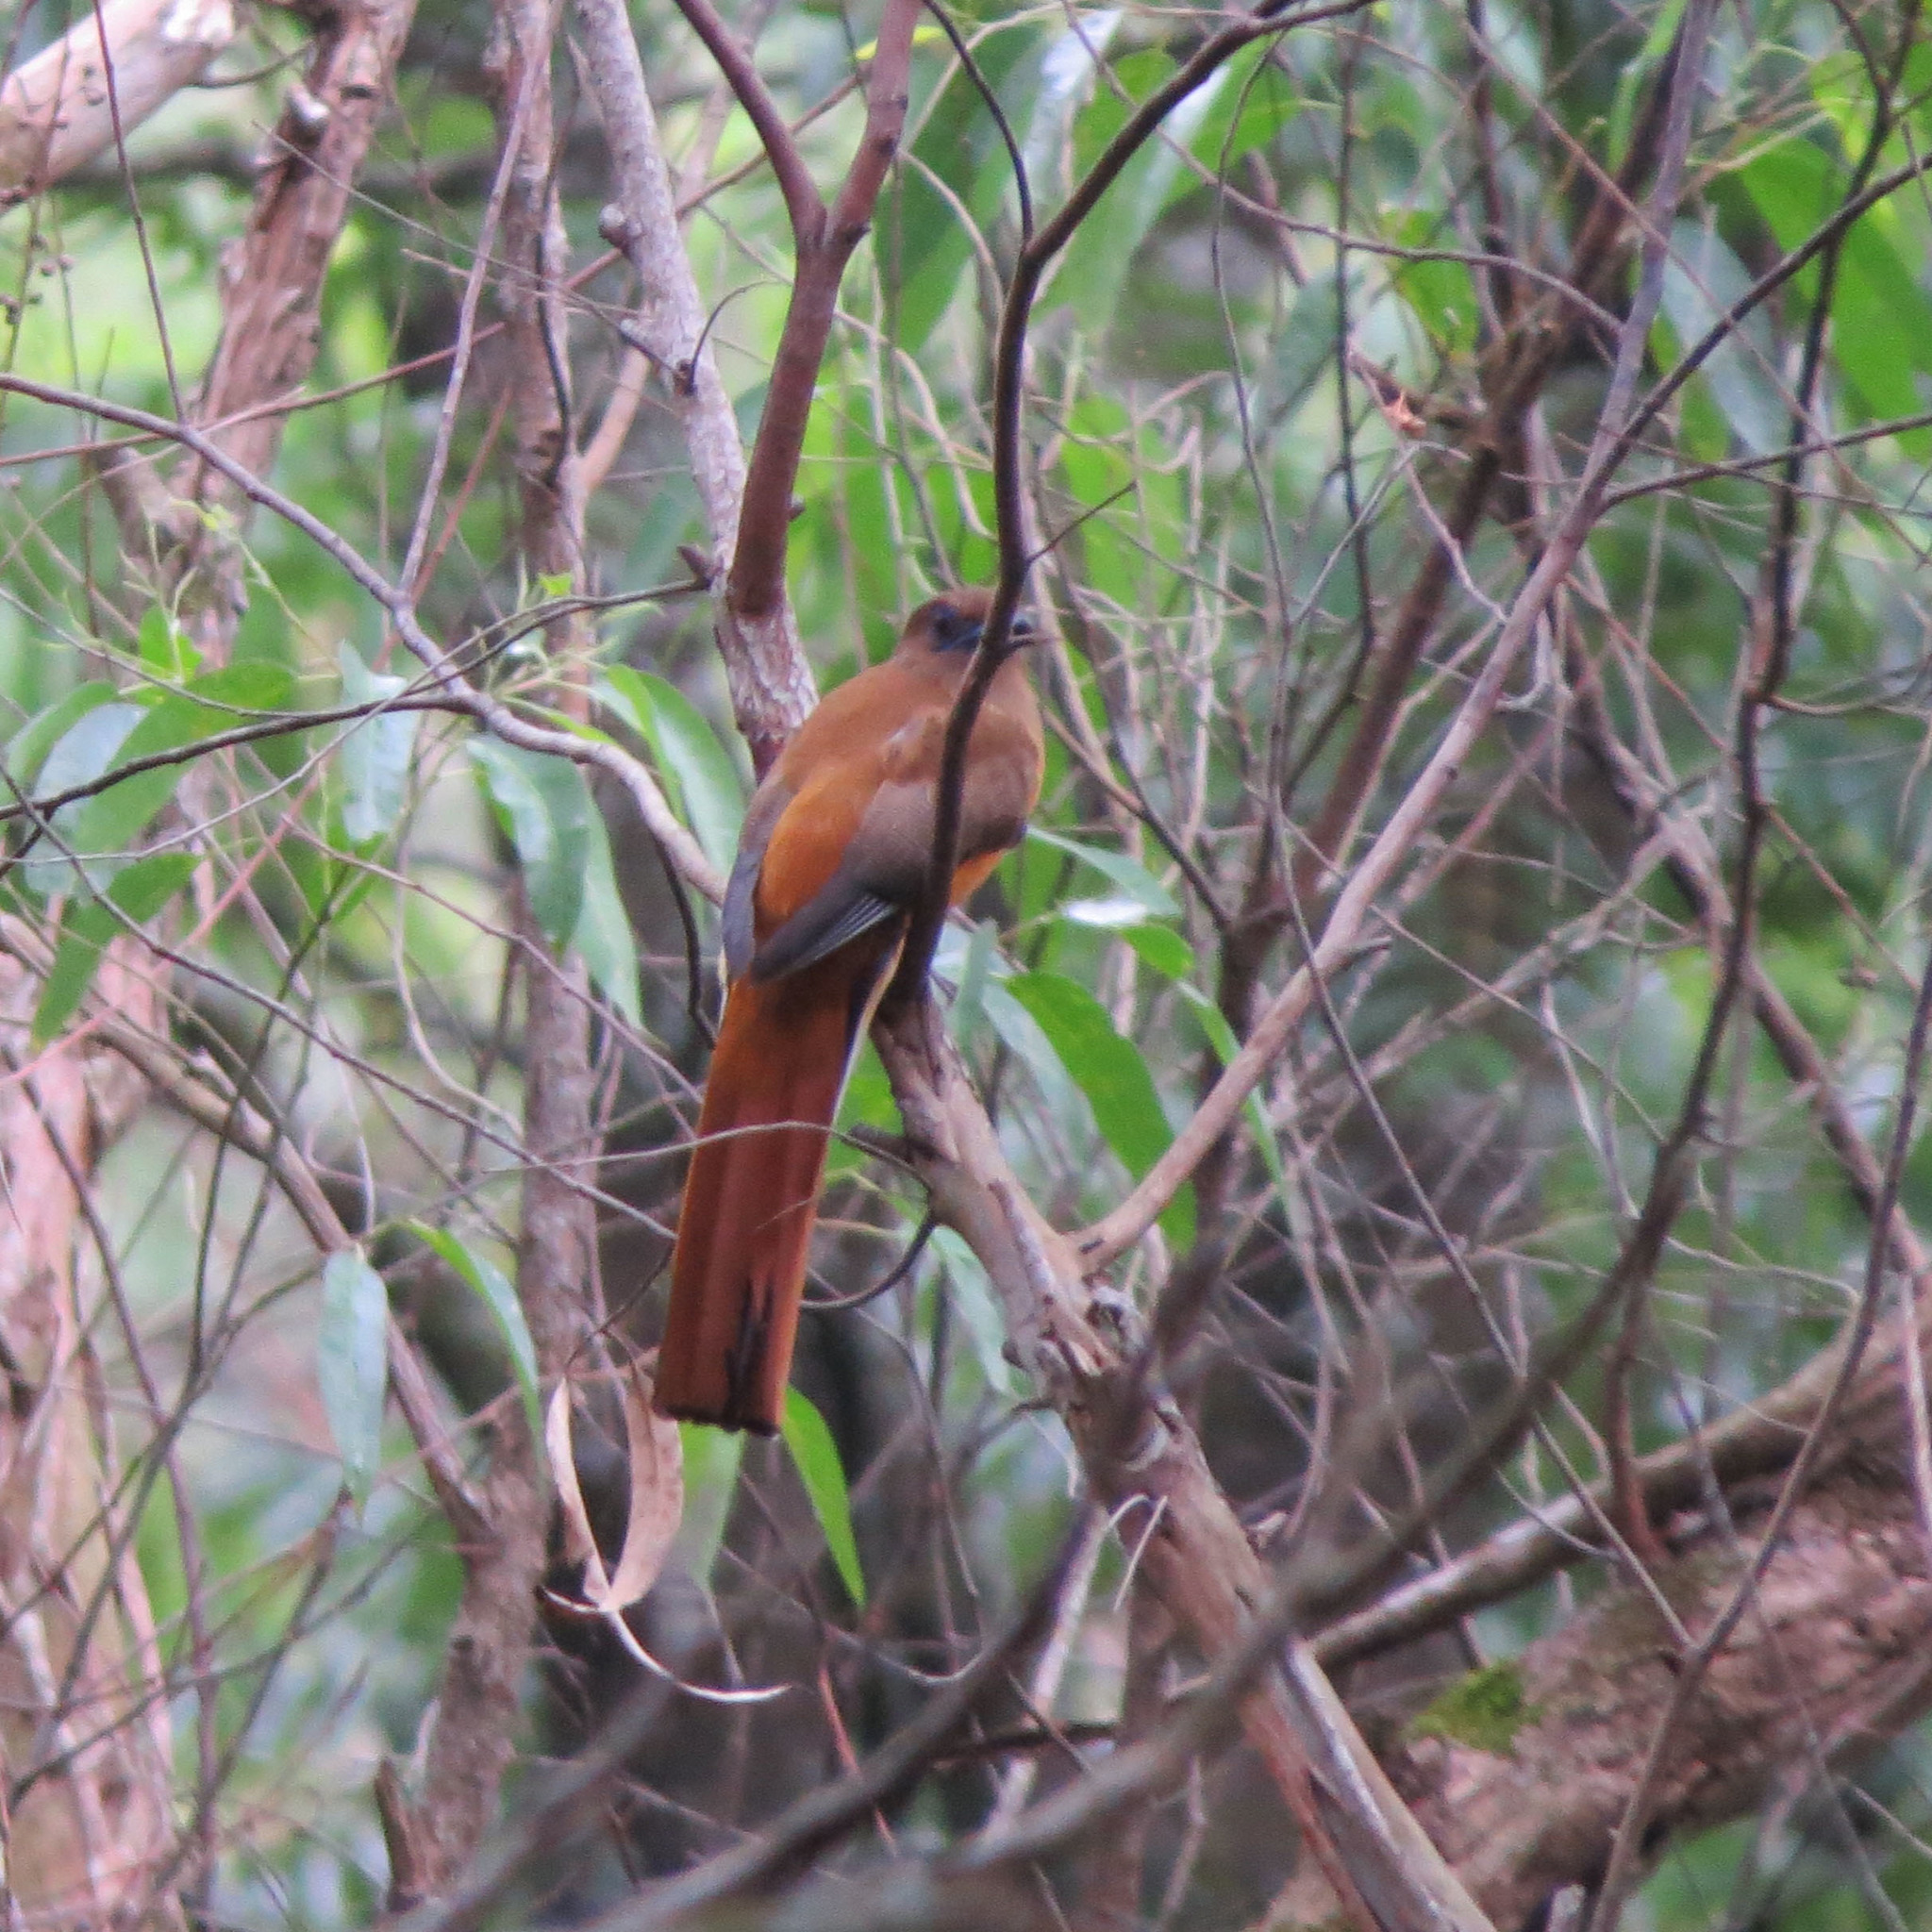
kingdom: Animalia
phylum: Chordata
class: Aves
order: Trogoniformes
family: Trogonidae
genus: Harpactes
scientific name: Harpactes fasciatus
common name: Malabar trogon
